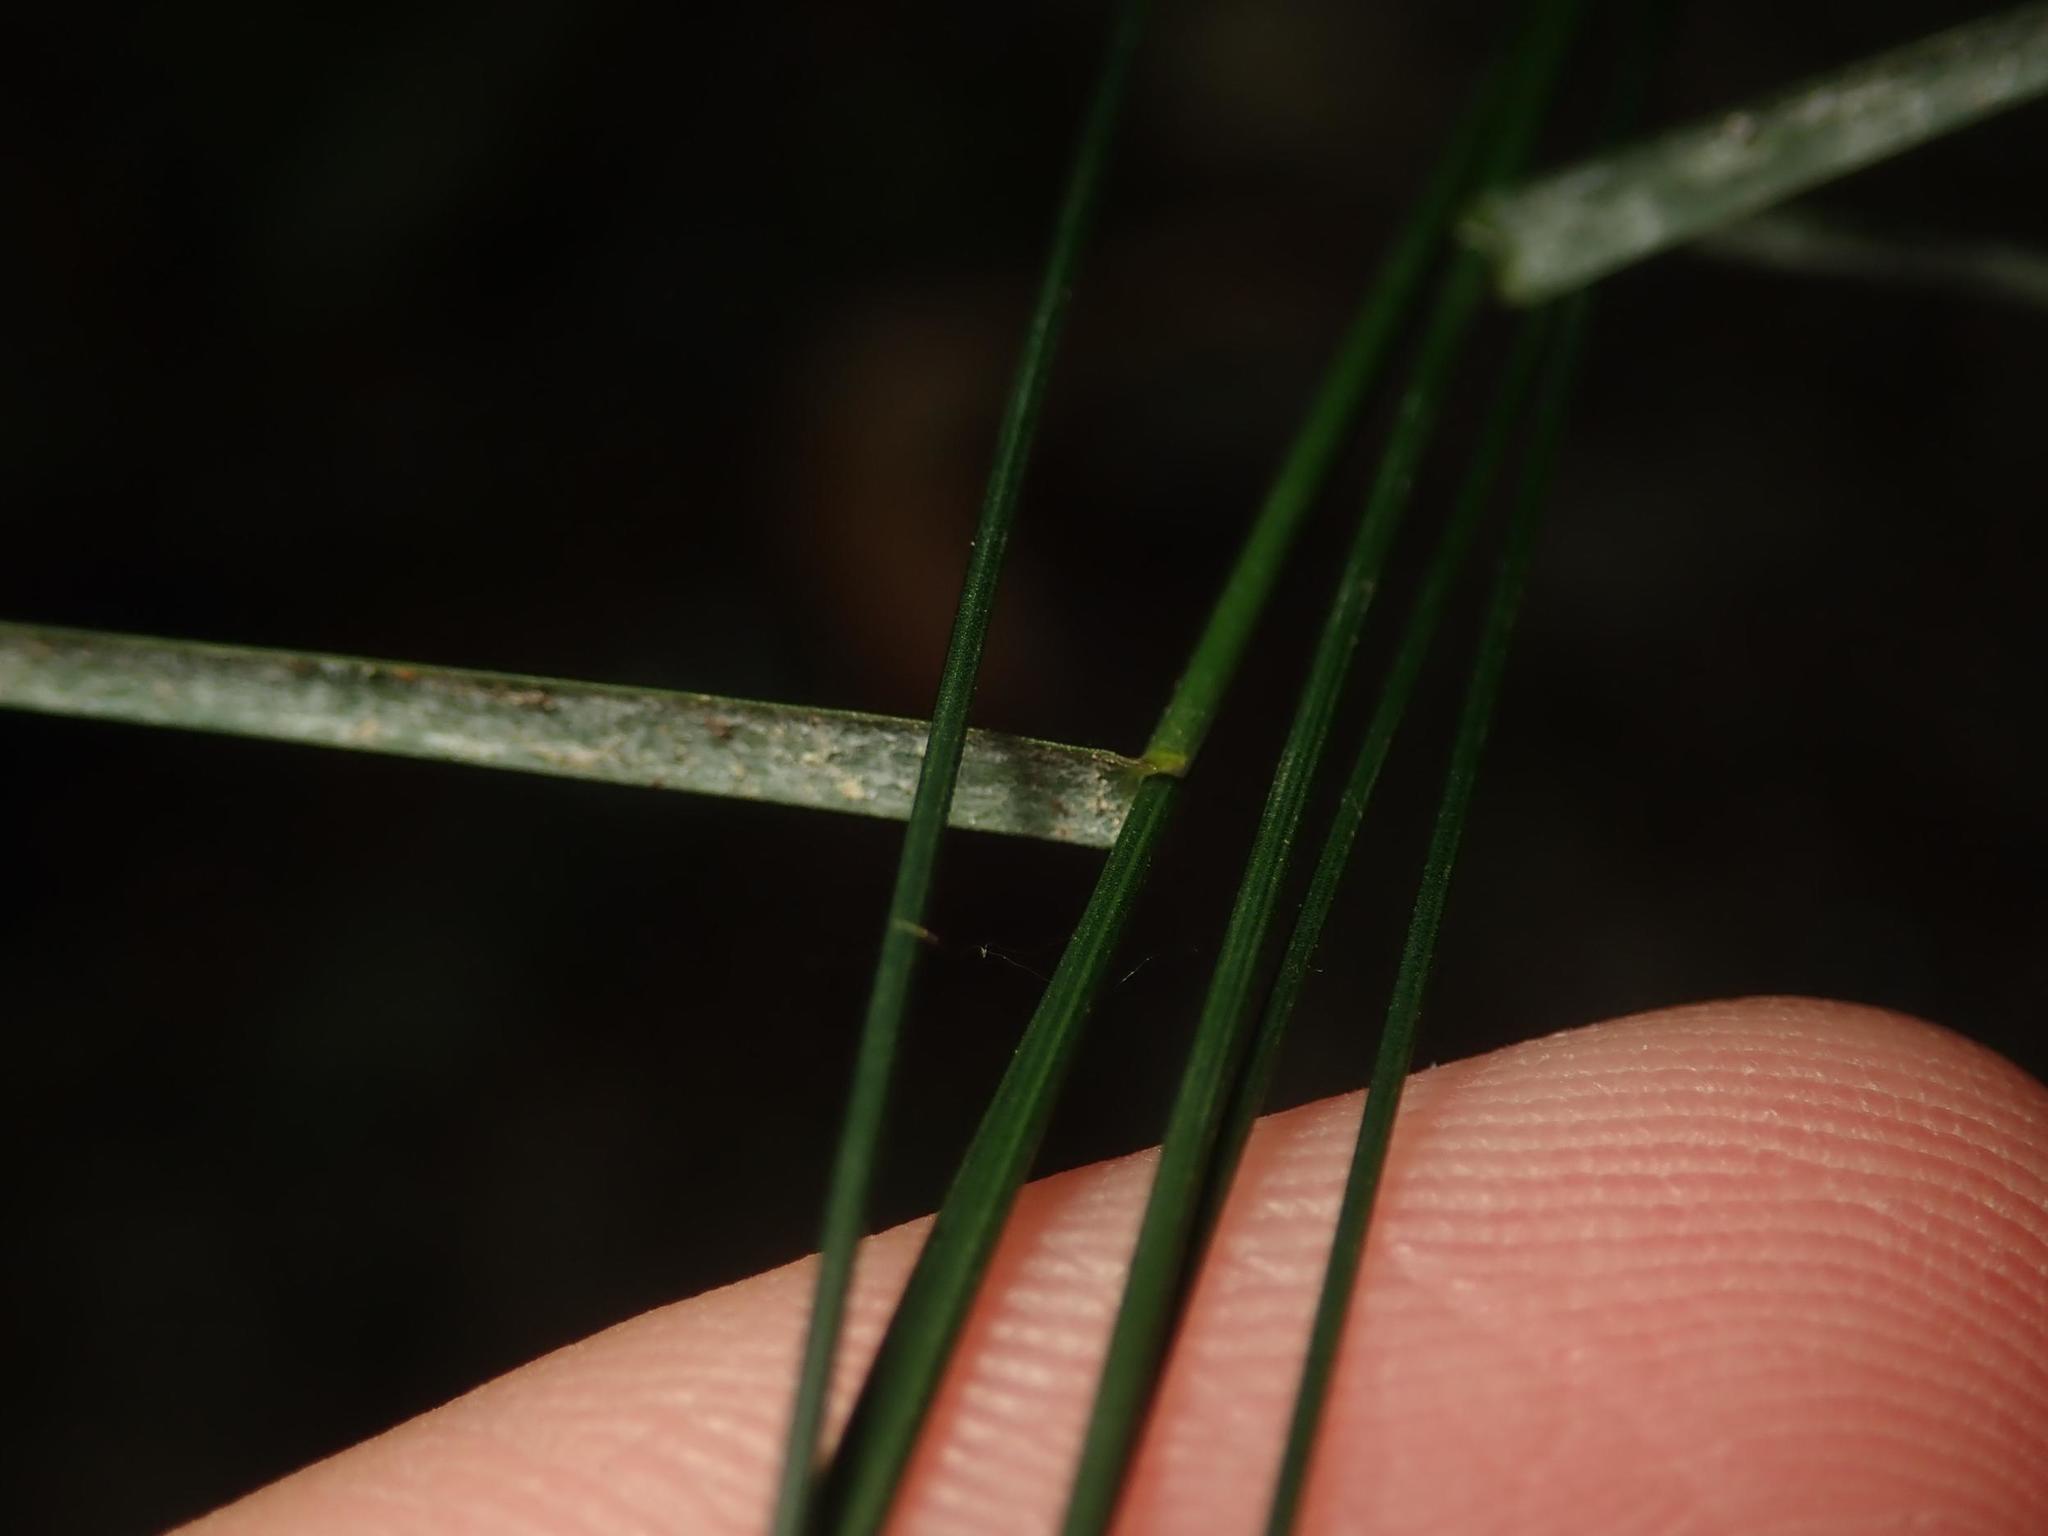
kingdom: Plantae
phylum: Tracheophyta
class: Liliopsida
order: Poales
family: Poaceae
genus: Poa
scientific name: Poa nemoralis
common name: Wood bluegrass
